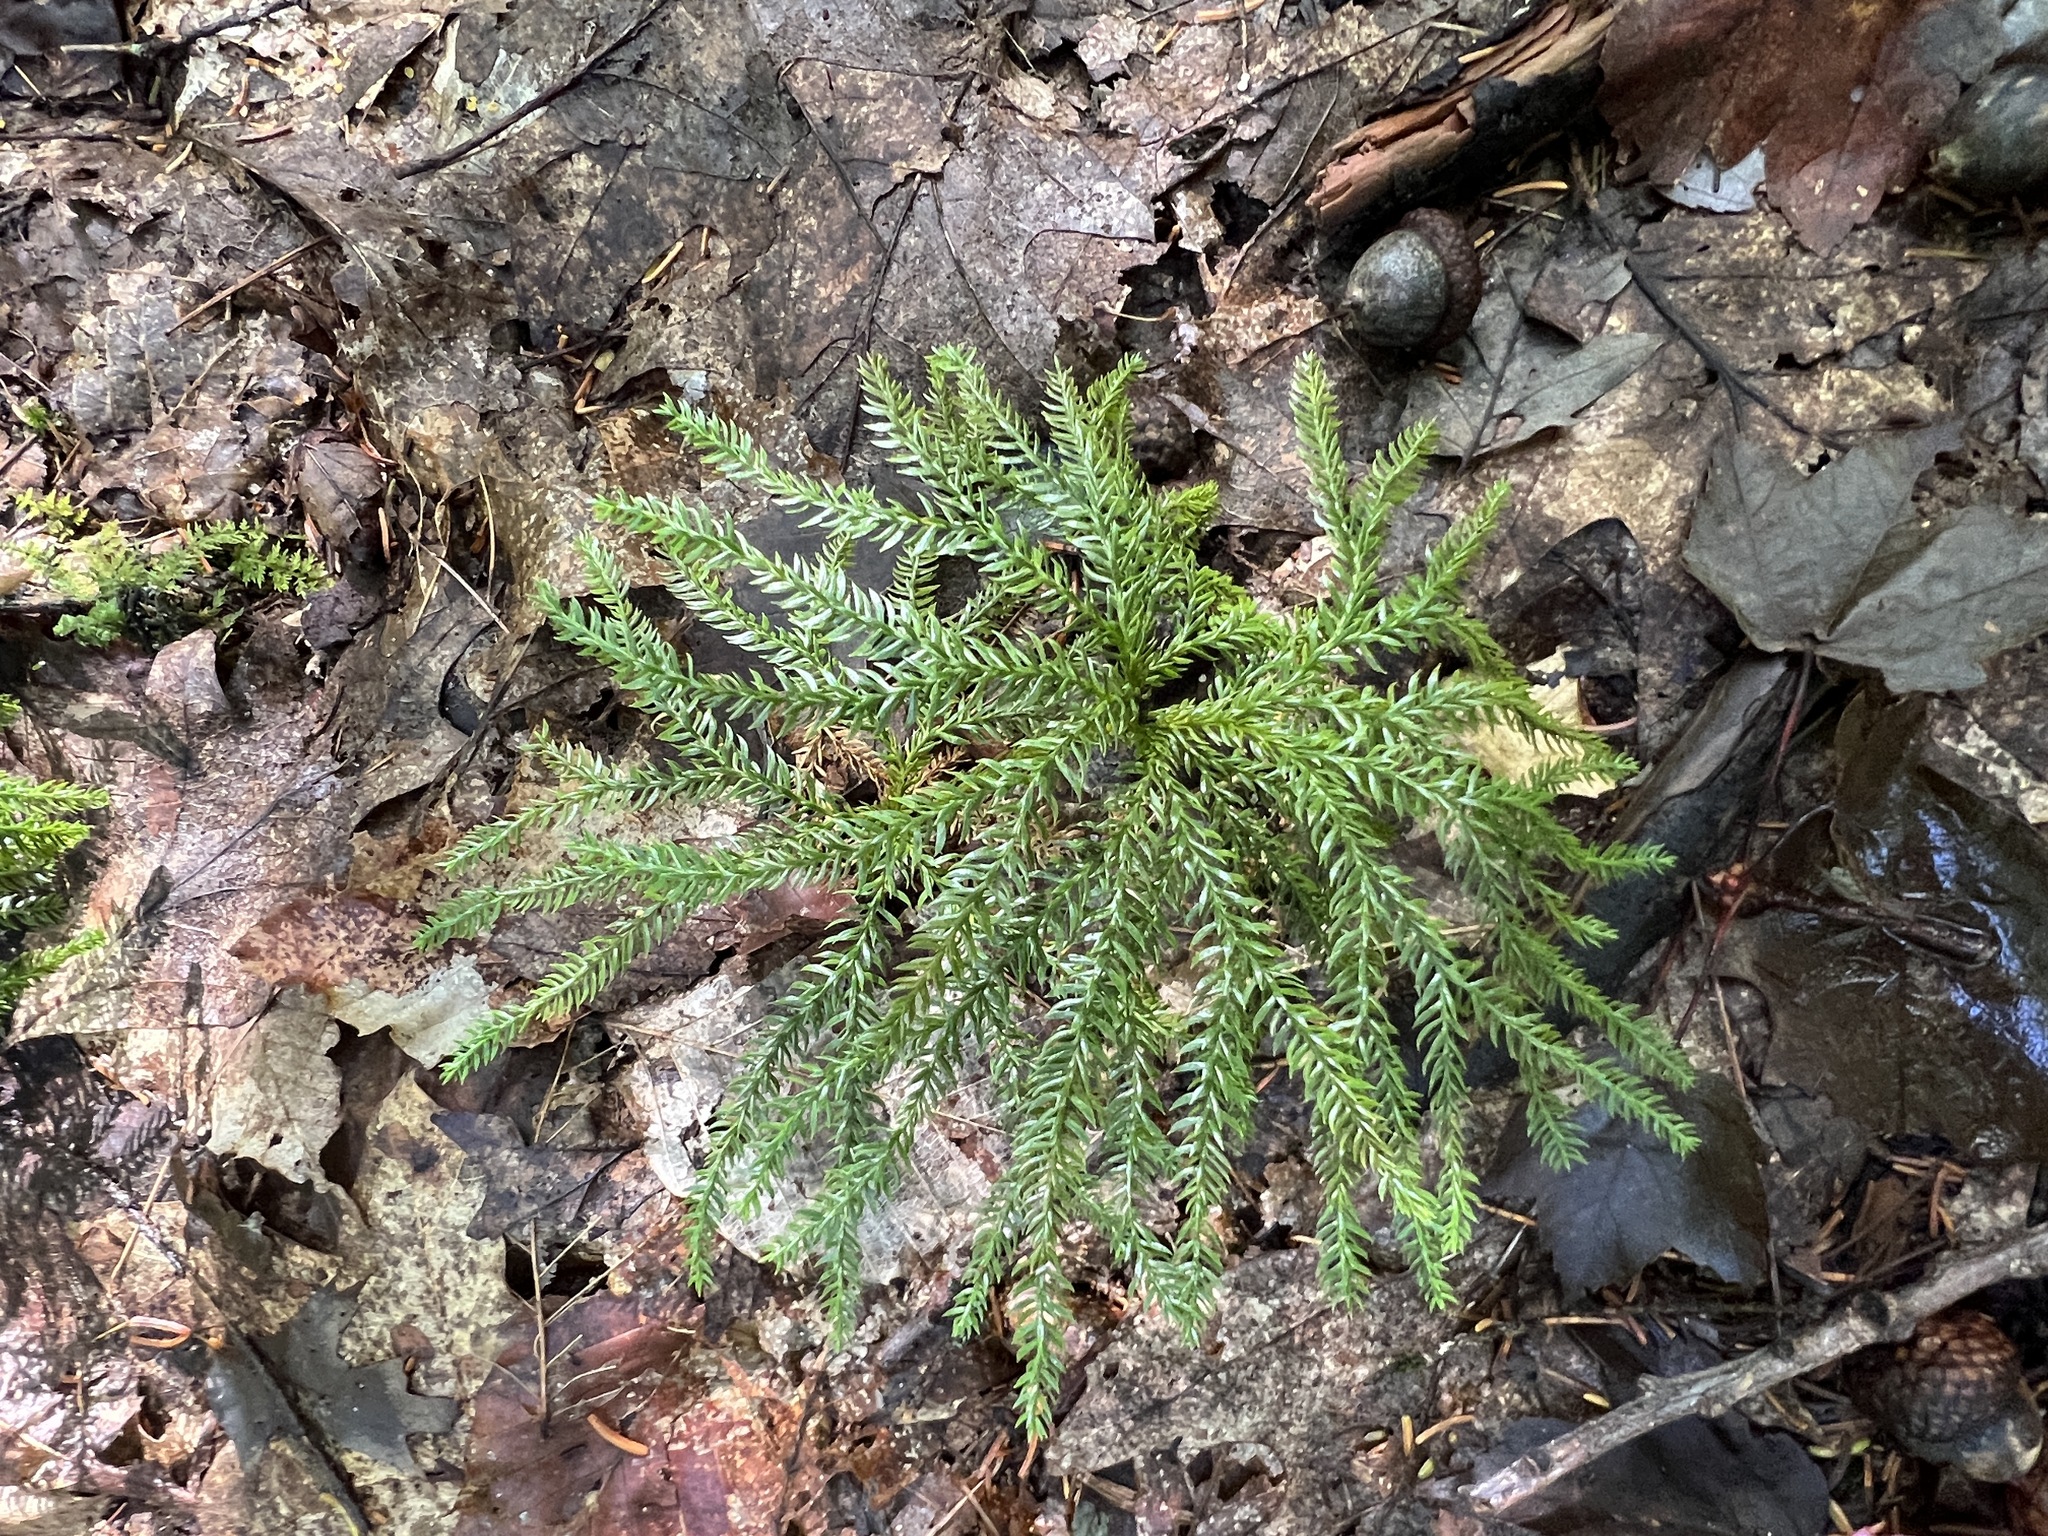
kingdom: Plantae
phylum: Tracheophyta
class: Lycopodiopsida
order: Lycopodiales
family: Lycopodiaceae
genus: Dendrolycopodium
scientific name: Dendrolycopodium dendroideum
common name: Northern tree-clubmoss
